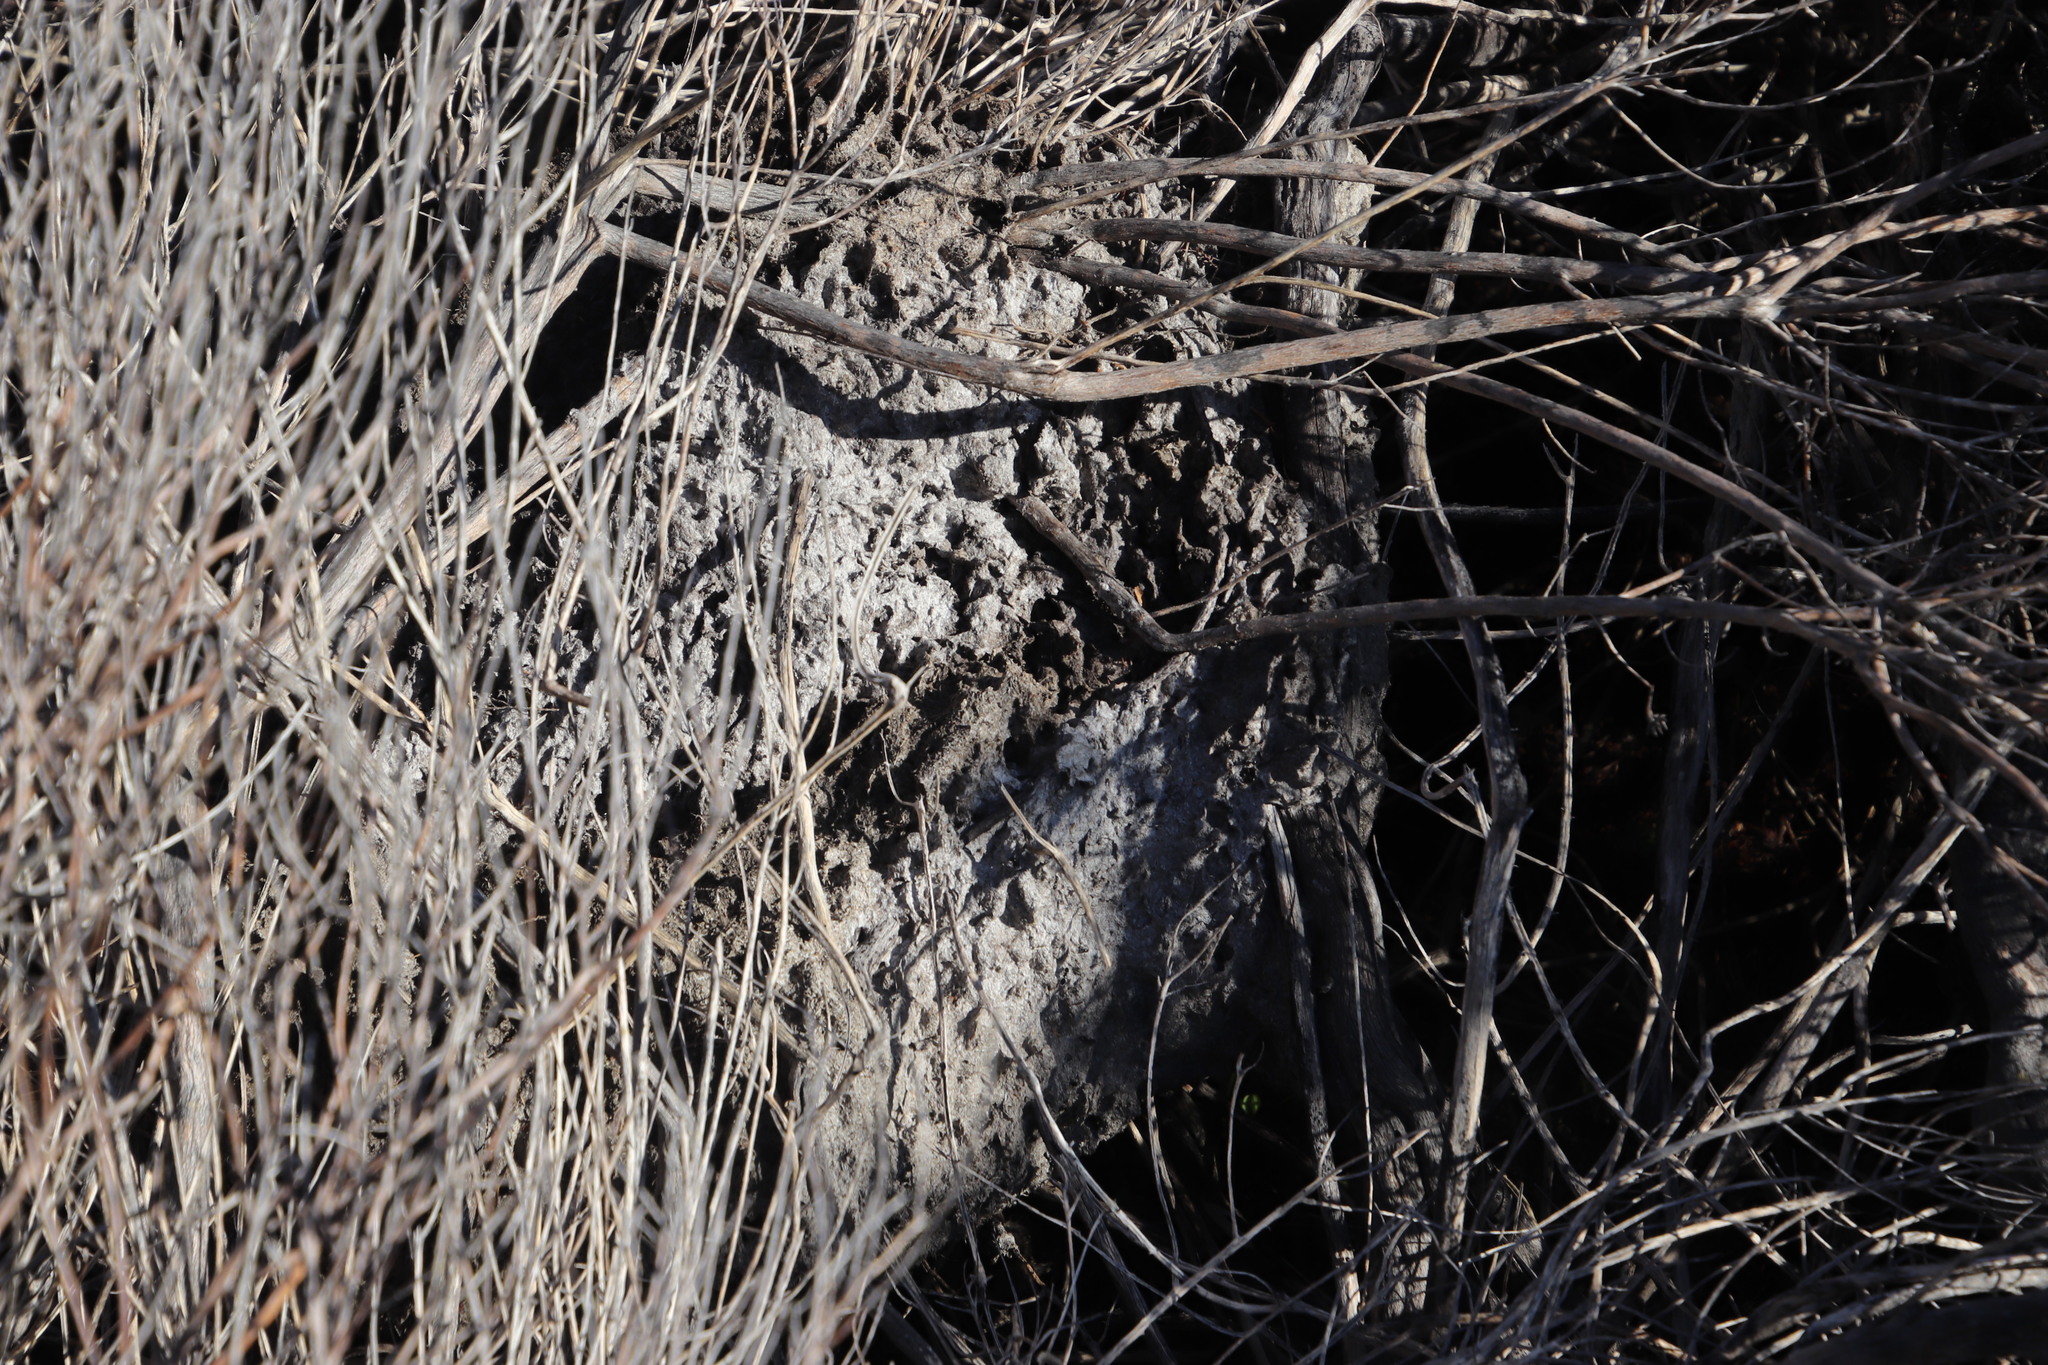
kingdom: Animalia
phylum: Arthropoda
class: Insecta
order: Hymenoptera
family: Formicidae
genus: Crematogaster
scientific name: Crematogaster peringueyi
